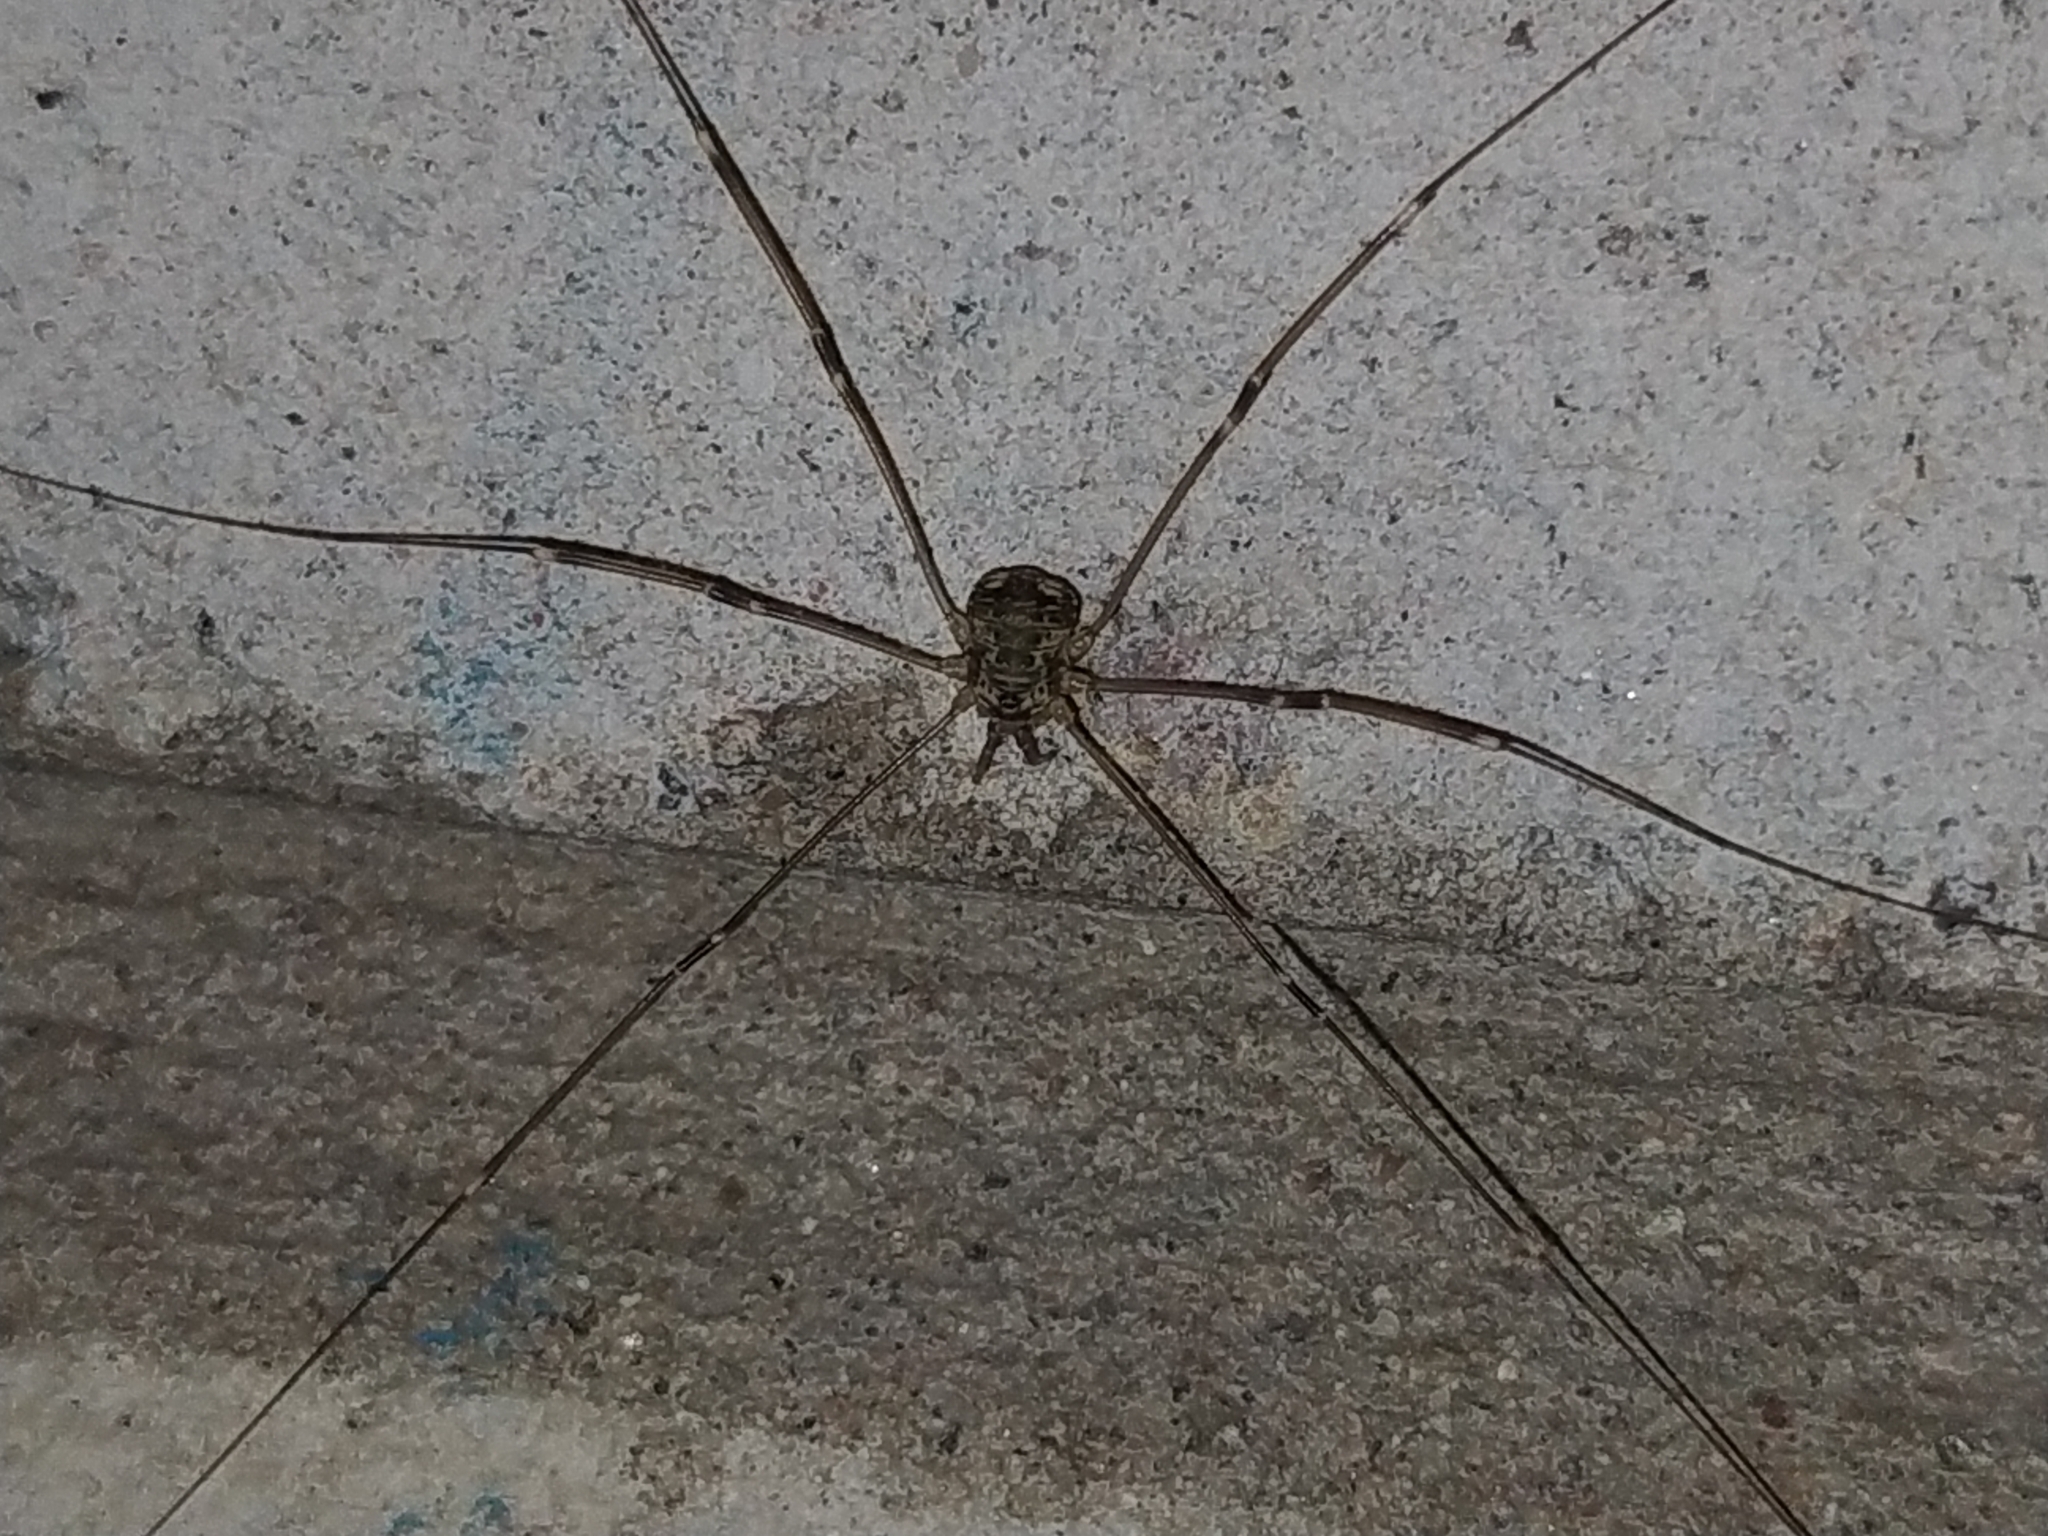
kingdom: Animalia
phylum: Arthropoda
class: Arachnida
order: Opiliones
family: Sclerosomatidae
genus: Leiobunum
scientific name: Leiobunum gracile
